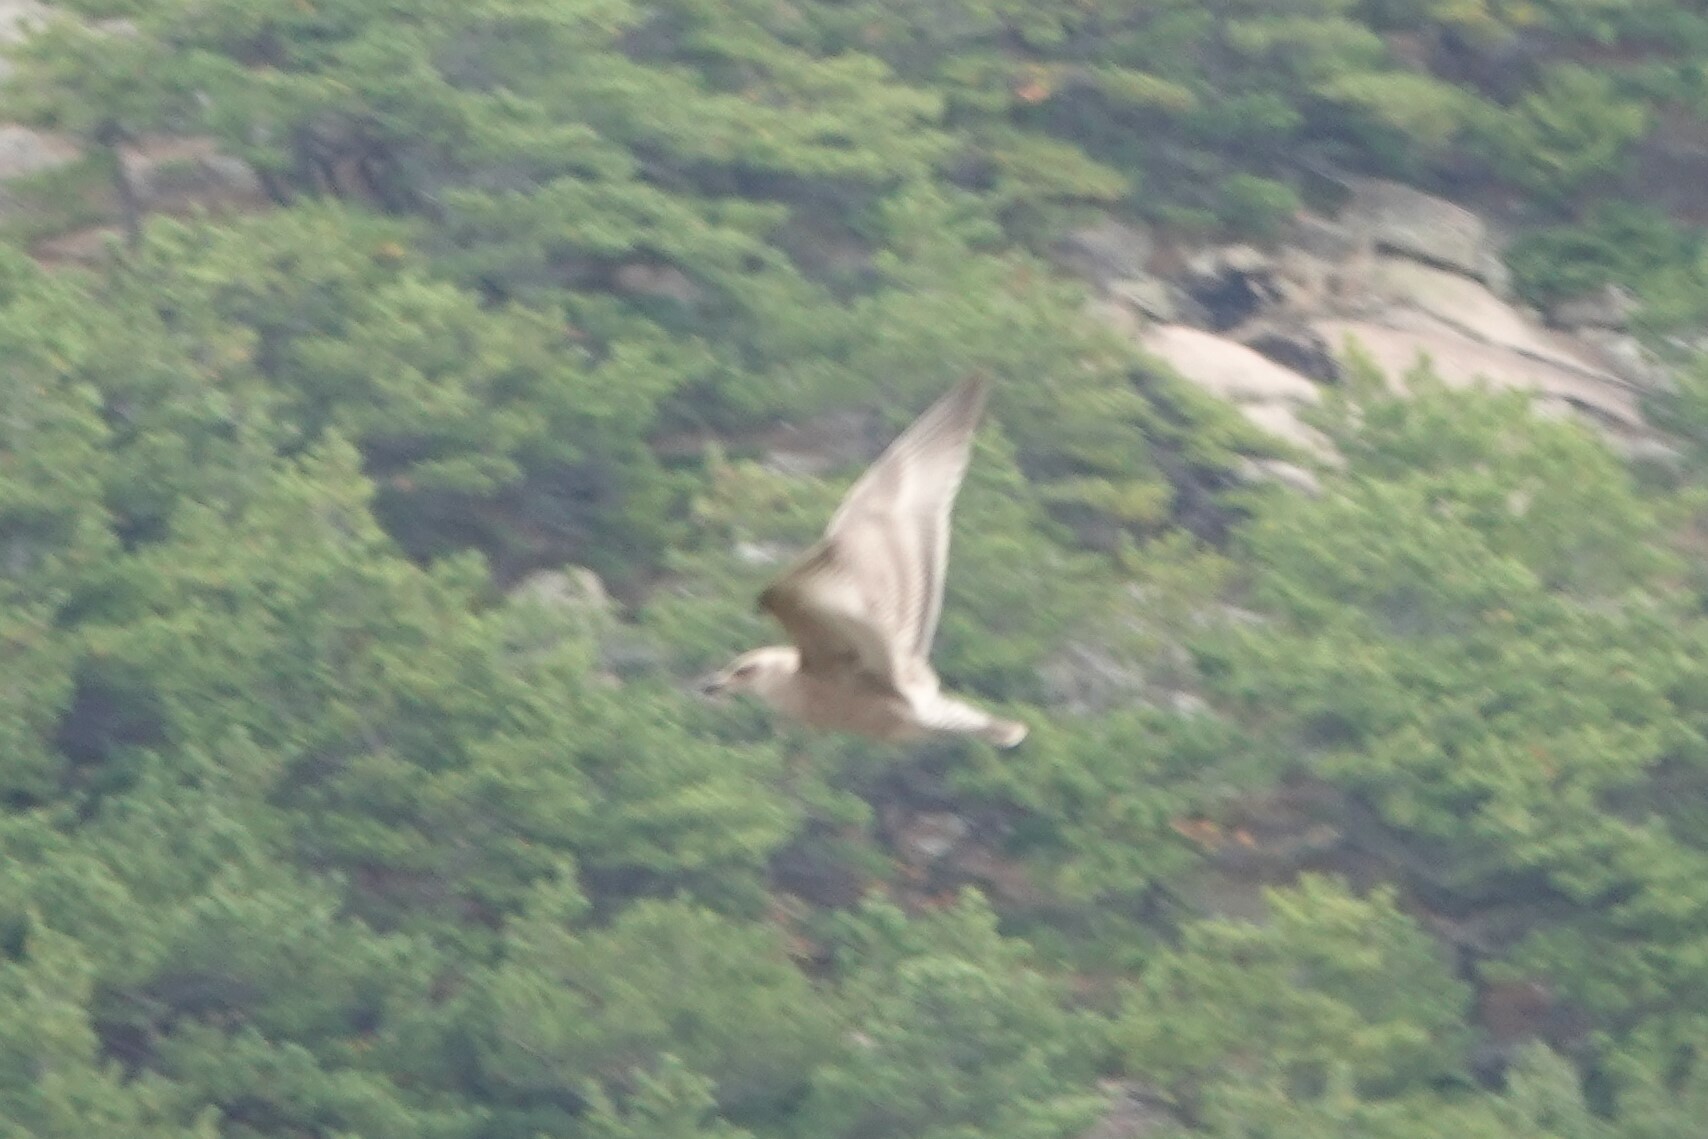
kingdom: Animalia
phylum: Chordata
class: Aves
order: Charadriiformes
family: Laridae
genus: Larus
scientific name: Larus argentatus
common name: Herring gull
